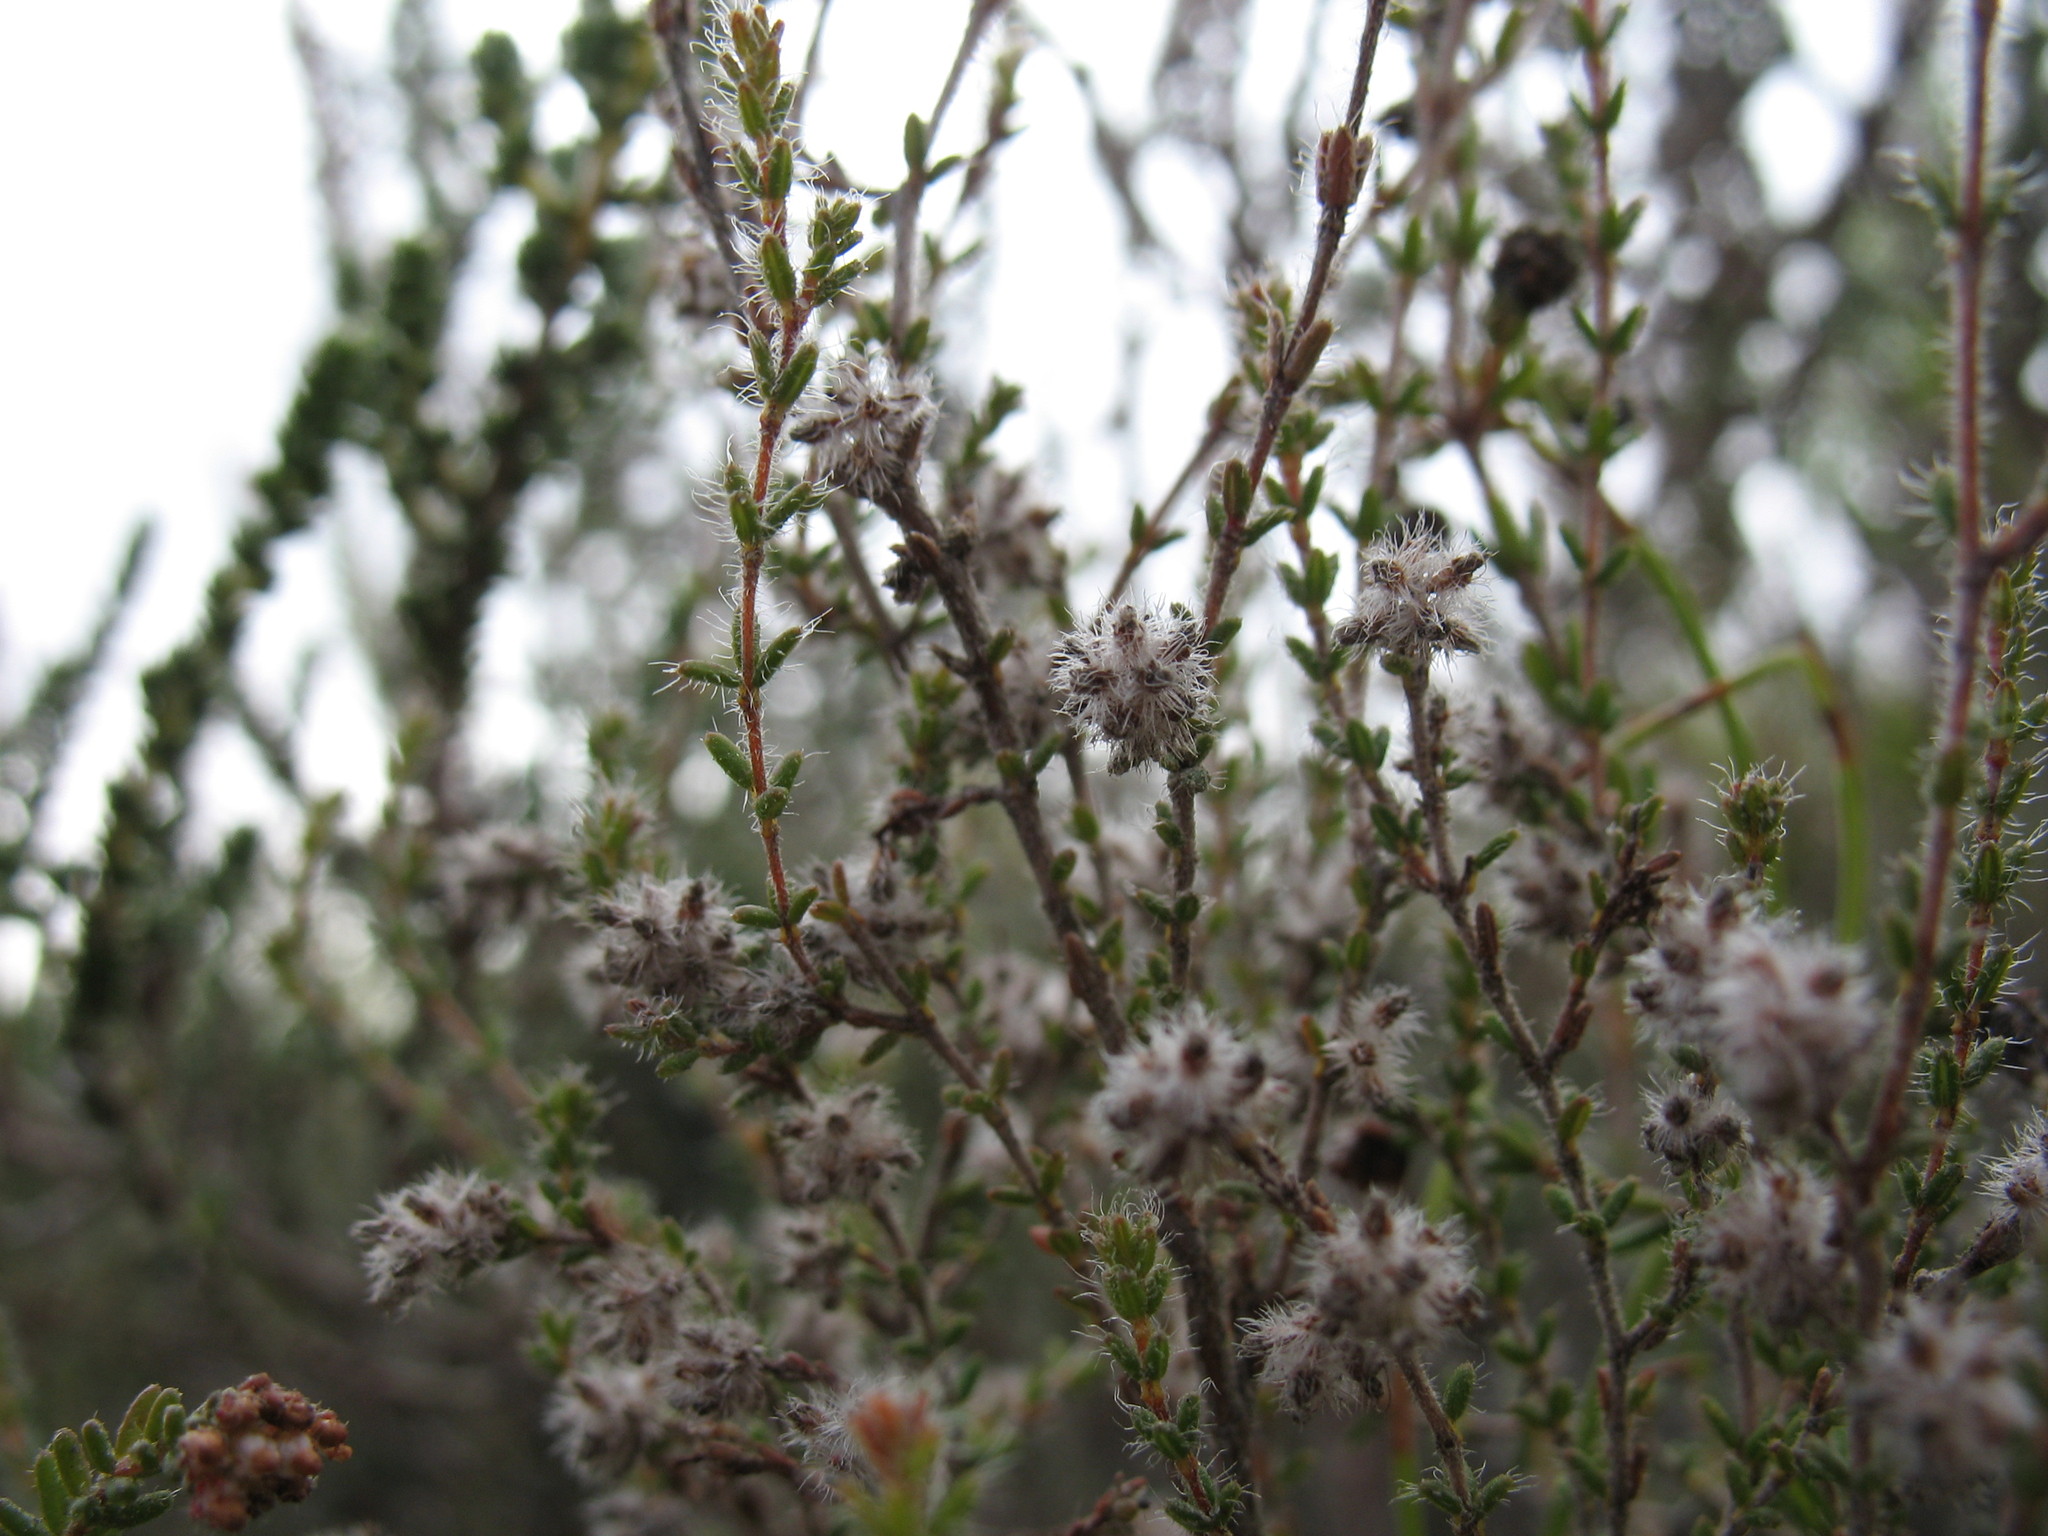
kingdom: Plantae
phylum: Tracheophyta
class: Magnoliopsida
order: Ericales
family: Ericaceae
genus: Erica
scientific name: Erica erinus
